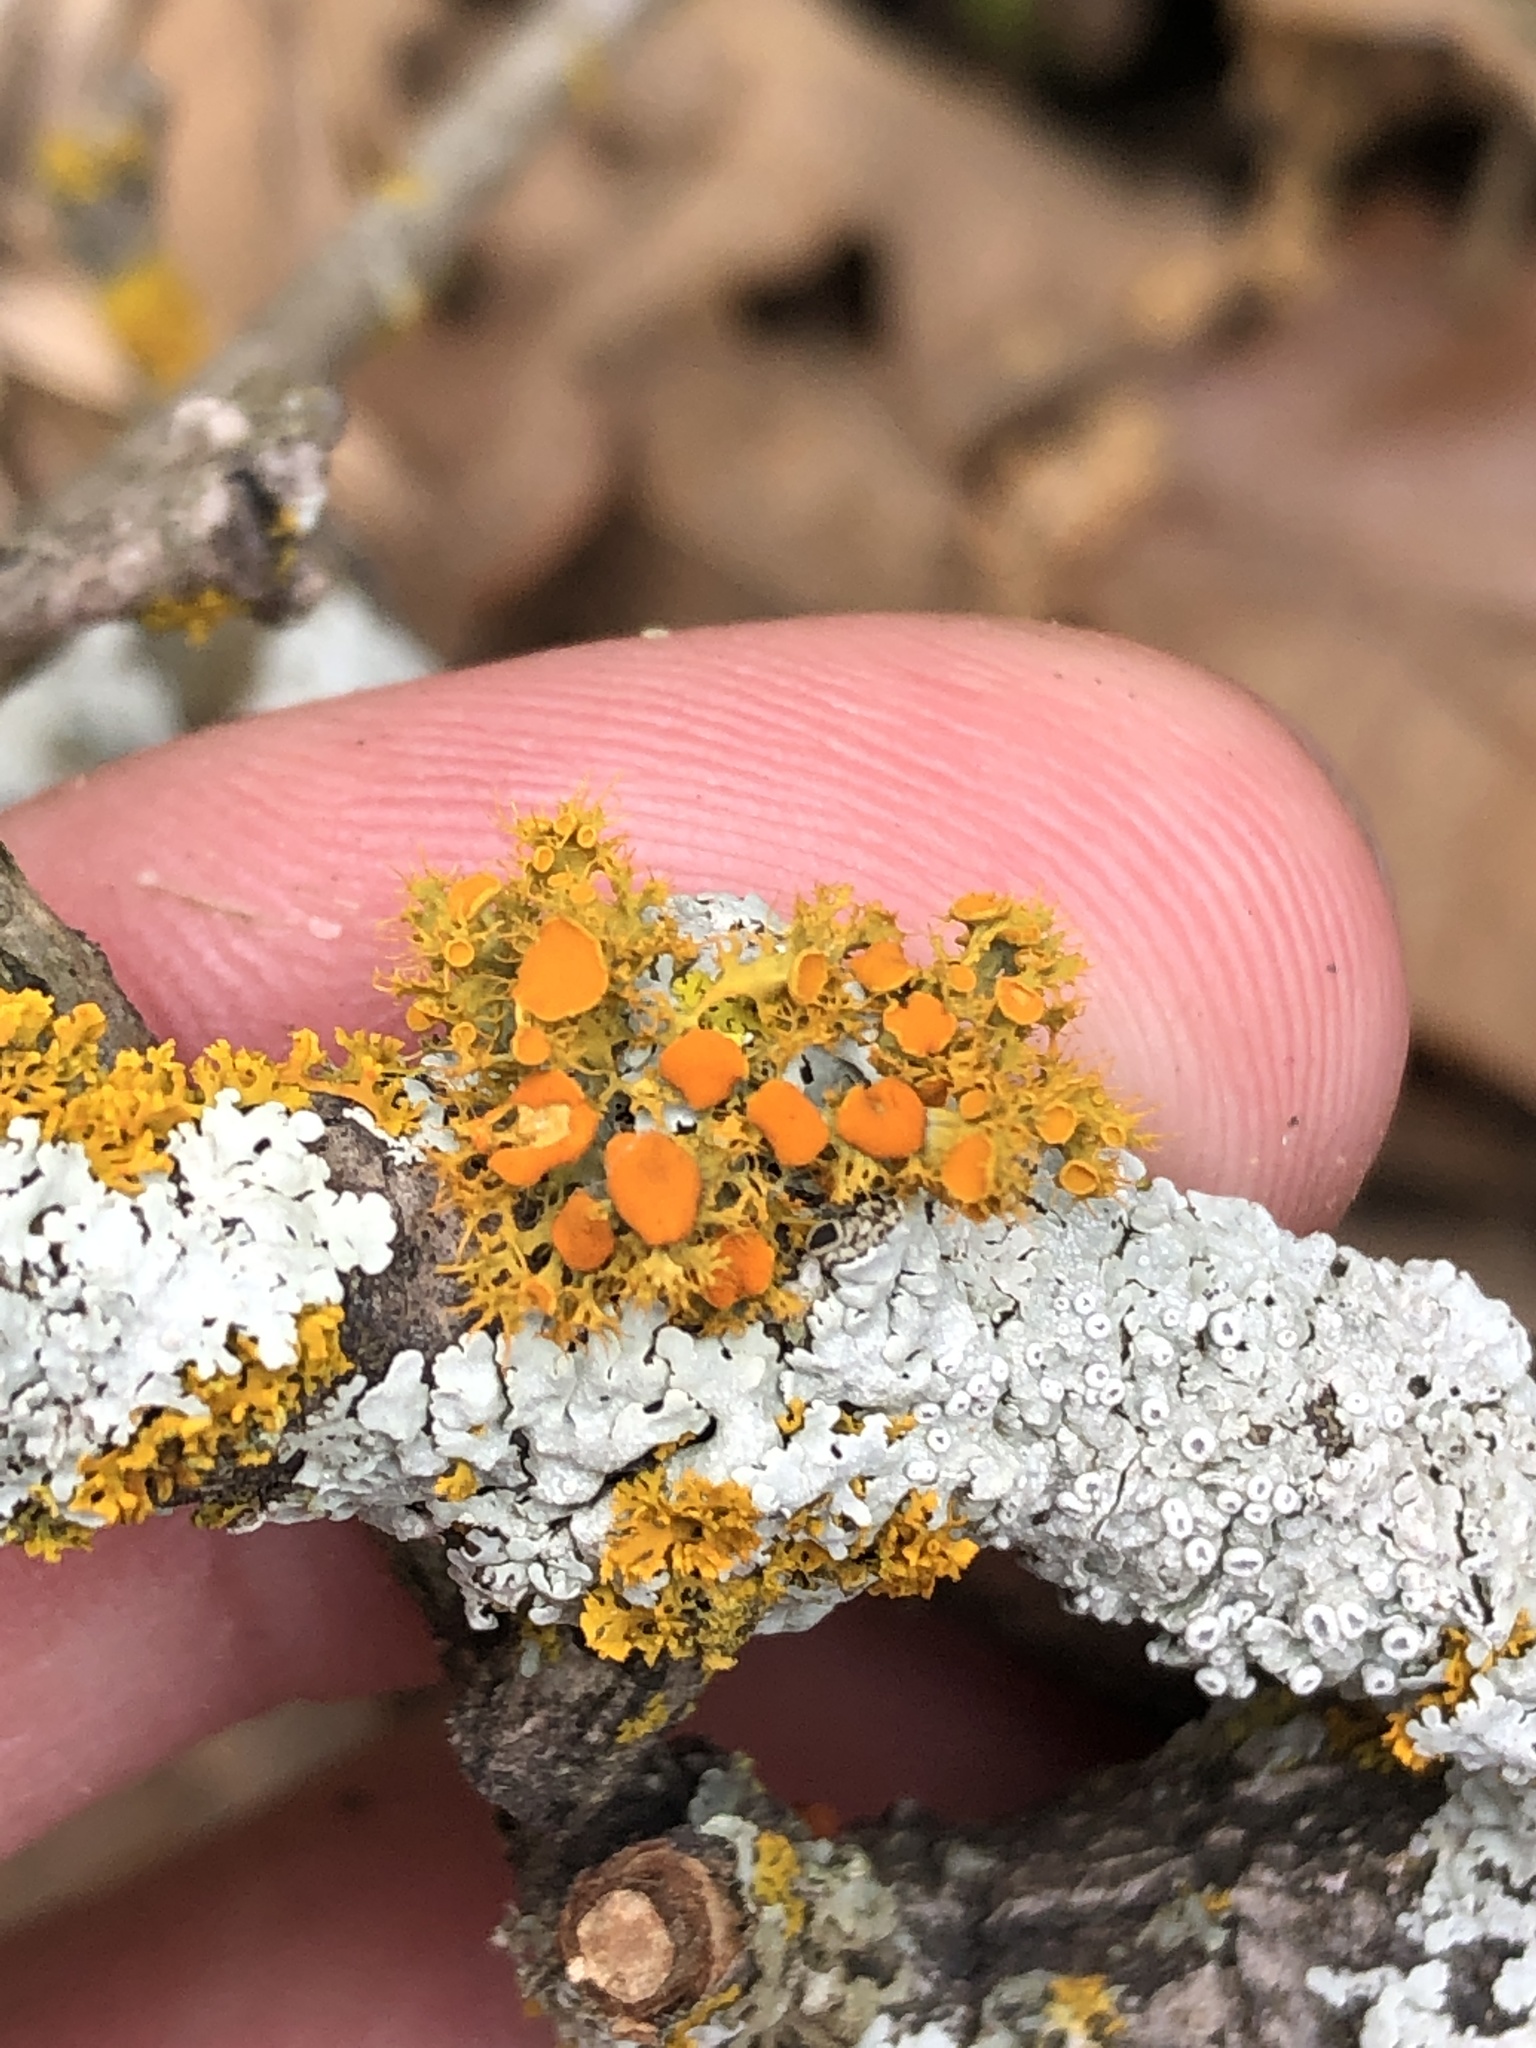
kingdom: Fungi
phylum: Ascomycota
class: Lecanoromycetes
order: Teloschistales
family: Teloschistaceae
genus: Niorma
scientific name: Niorma chrysophthalma
